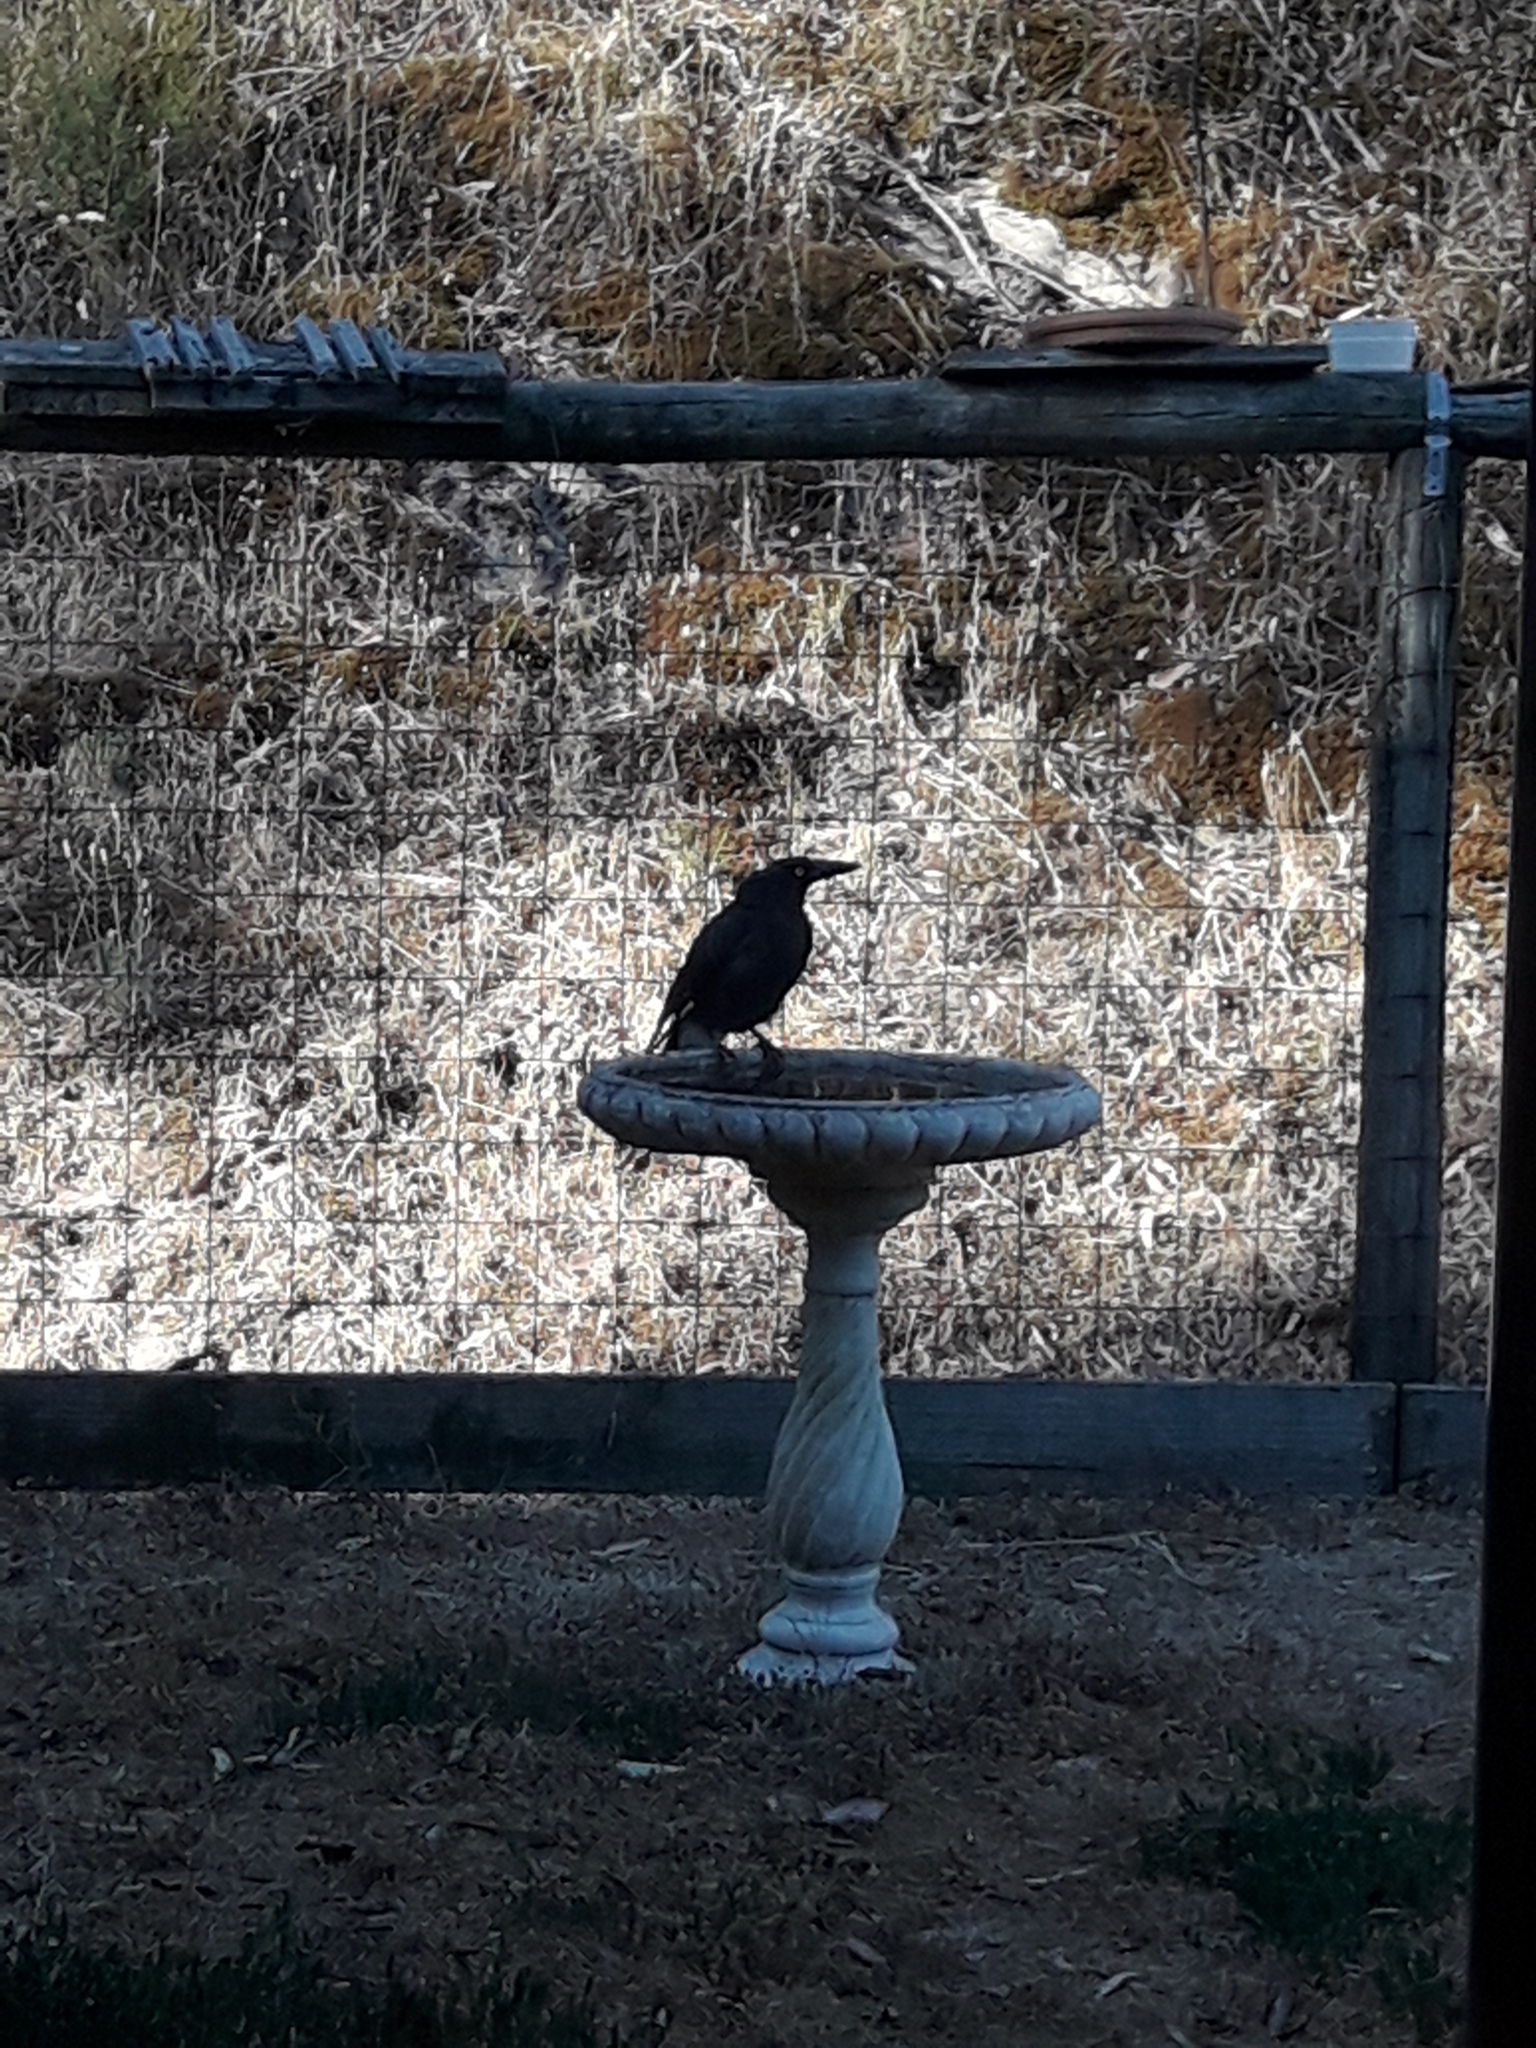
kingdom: Animalia
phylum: Chordata
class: Aves
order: Passeriformes
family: Cracticidae
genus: Strepera
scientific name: Strepera graculina
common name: Pied currawong
